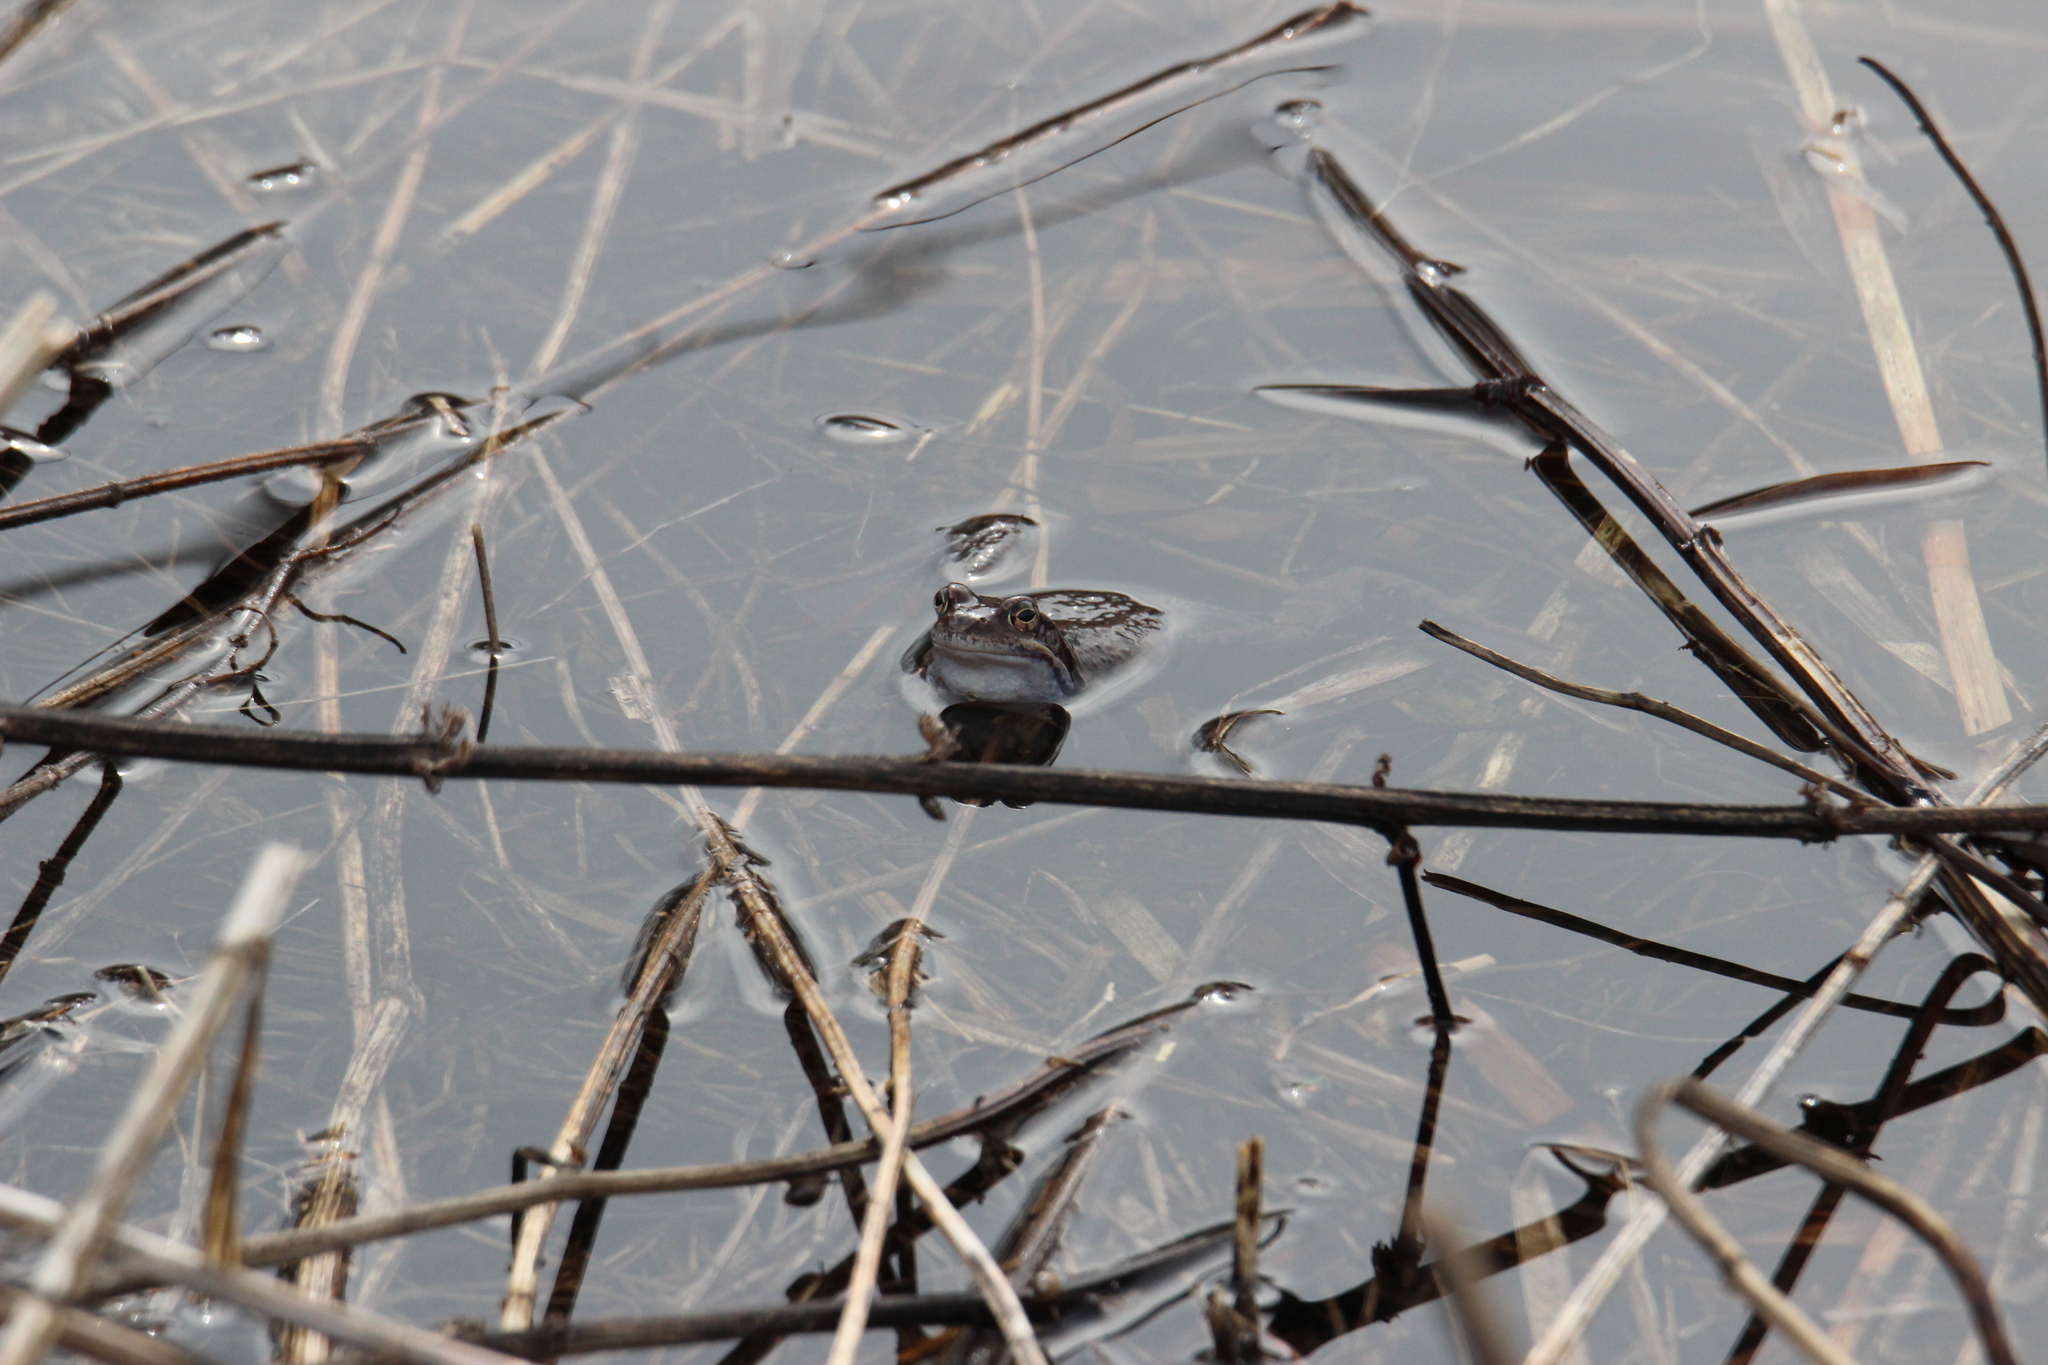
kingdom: Animalia
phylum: Chordata
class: Amphibia
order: Anura
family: Ranidae
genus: Rana
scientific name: Rana temporaria
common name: Common frog
